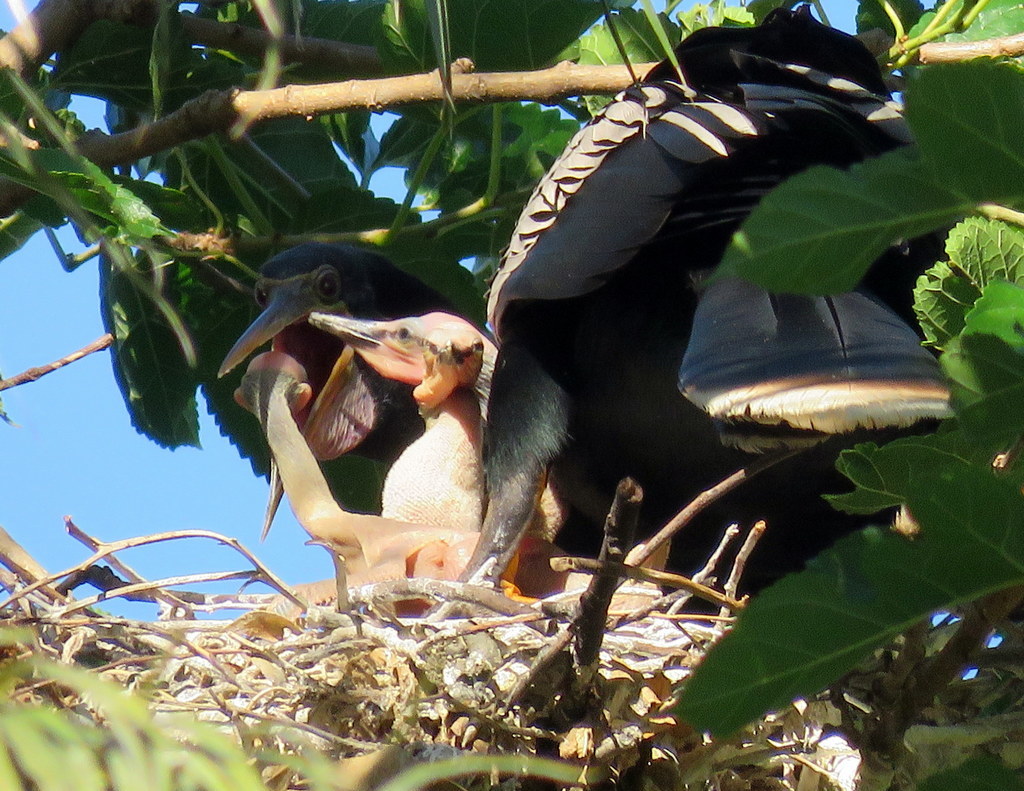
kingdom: Animalia
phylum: Chordata
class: Aves
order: Suliformes
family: Anhingidae
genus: Anhinga
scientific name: Anhinga anhinga
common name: Anhinga
